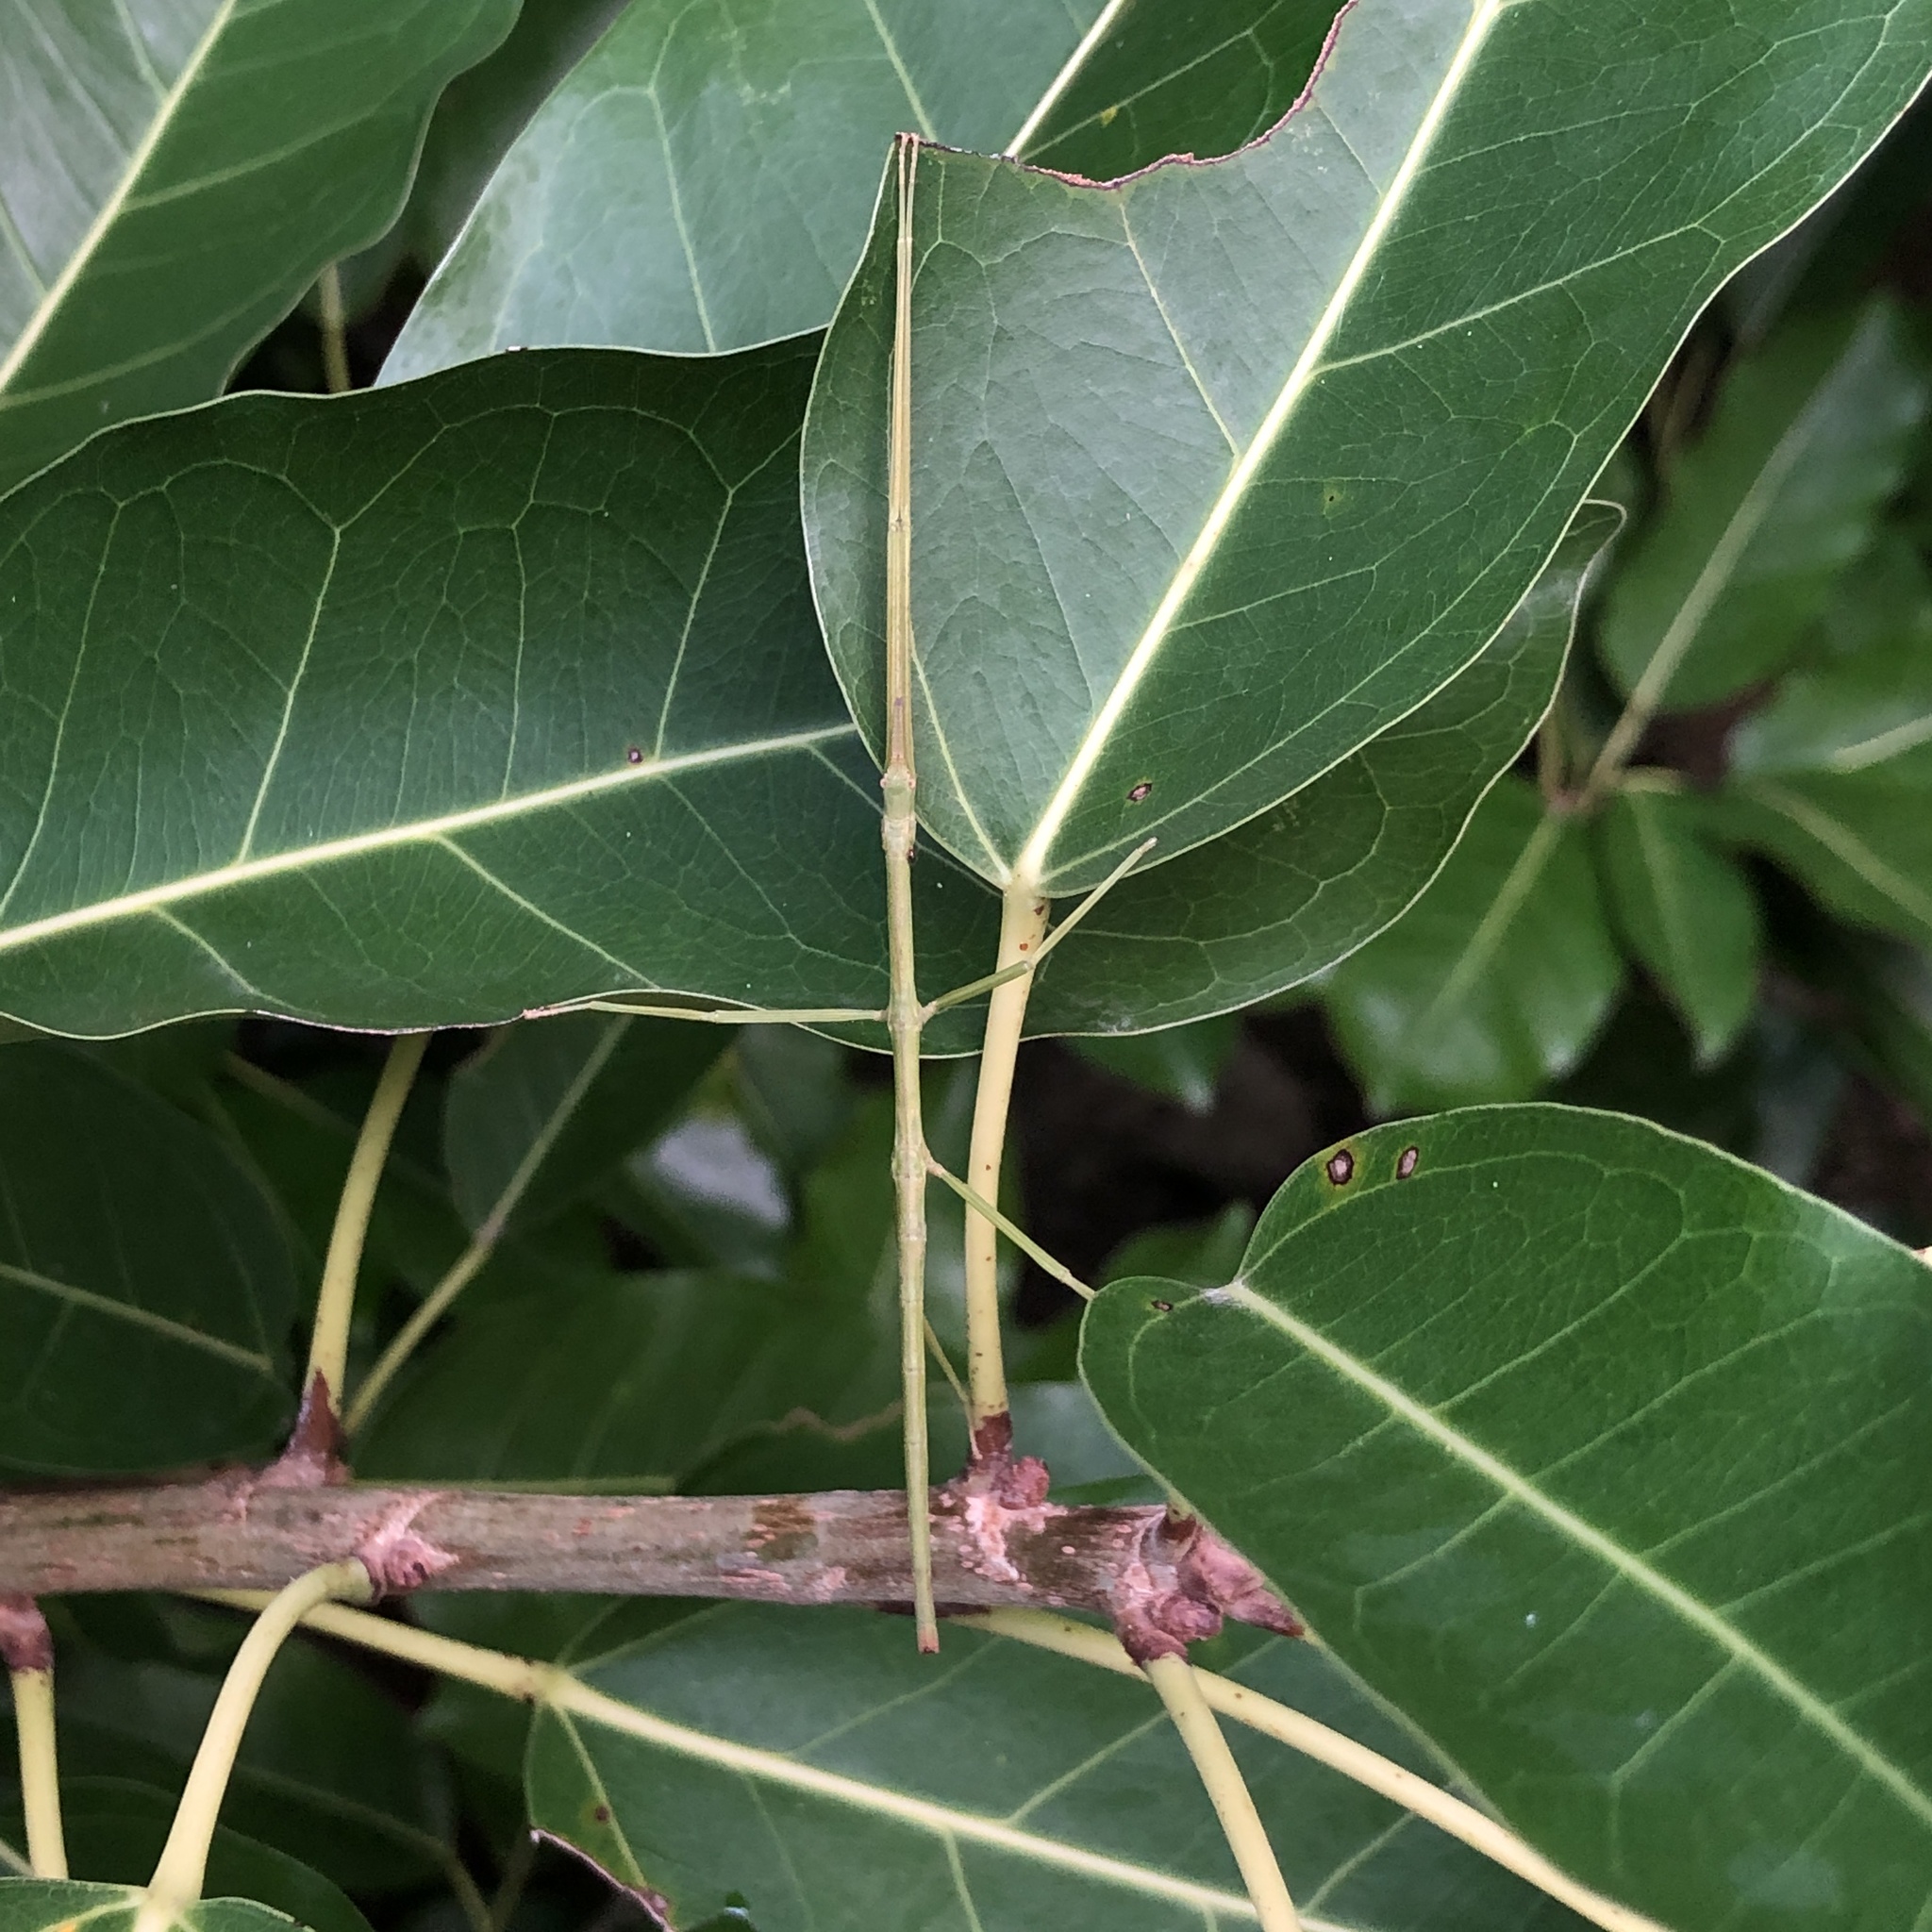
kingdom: Animalia
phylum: Arthropoda
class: Insecta
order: Phasmida
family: Phasmatidae
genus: Entoria
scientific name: Entoria miyakoensis
